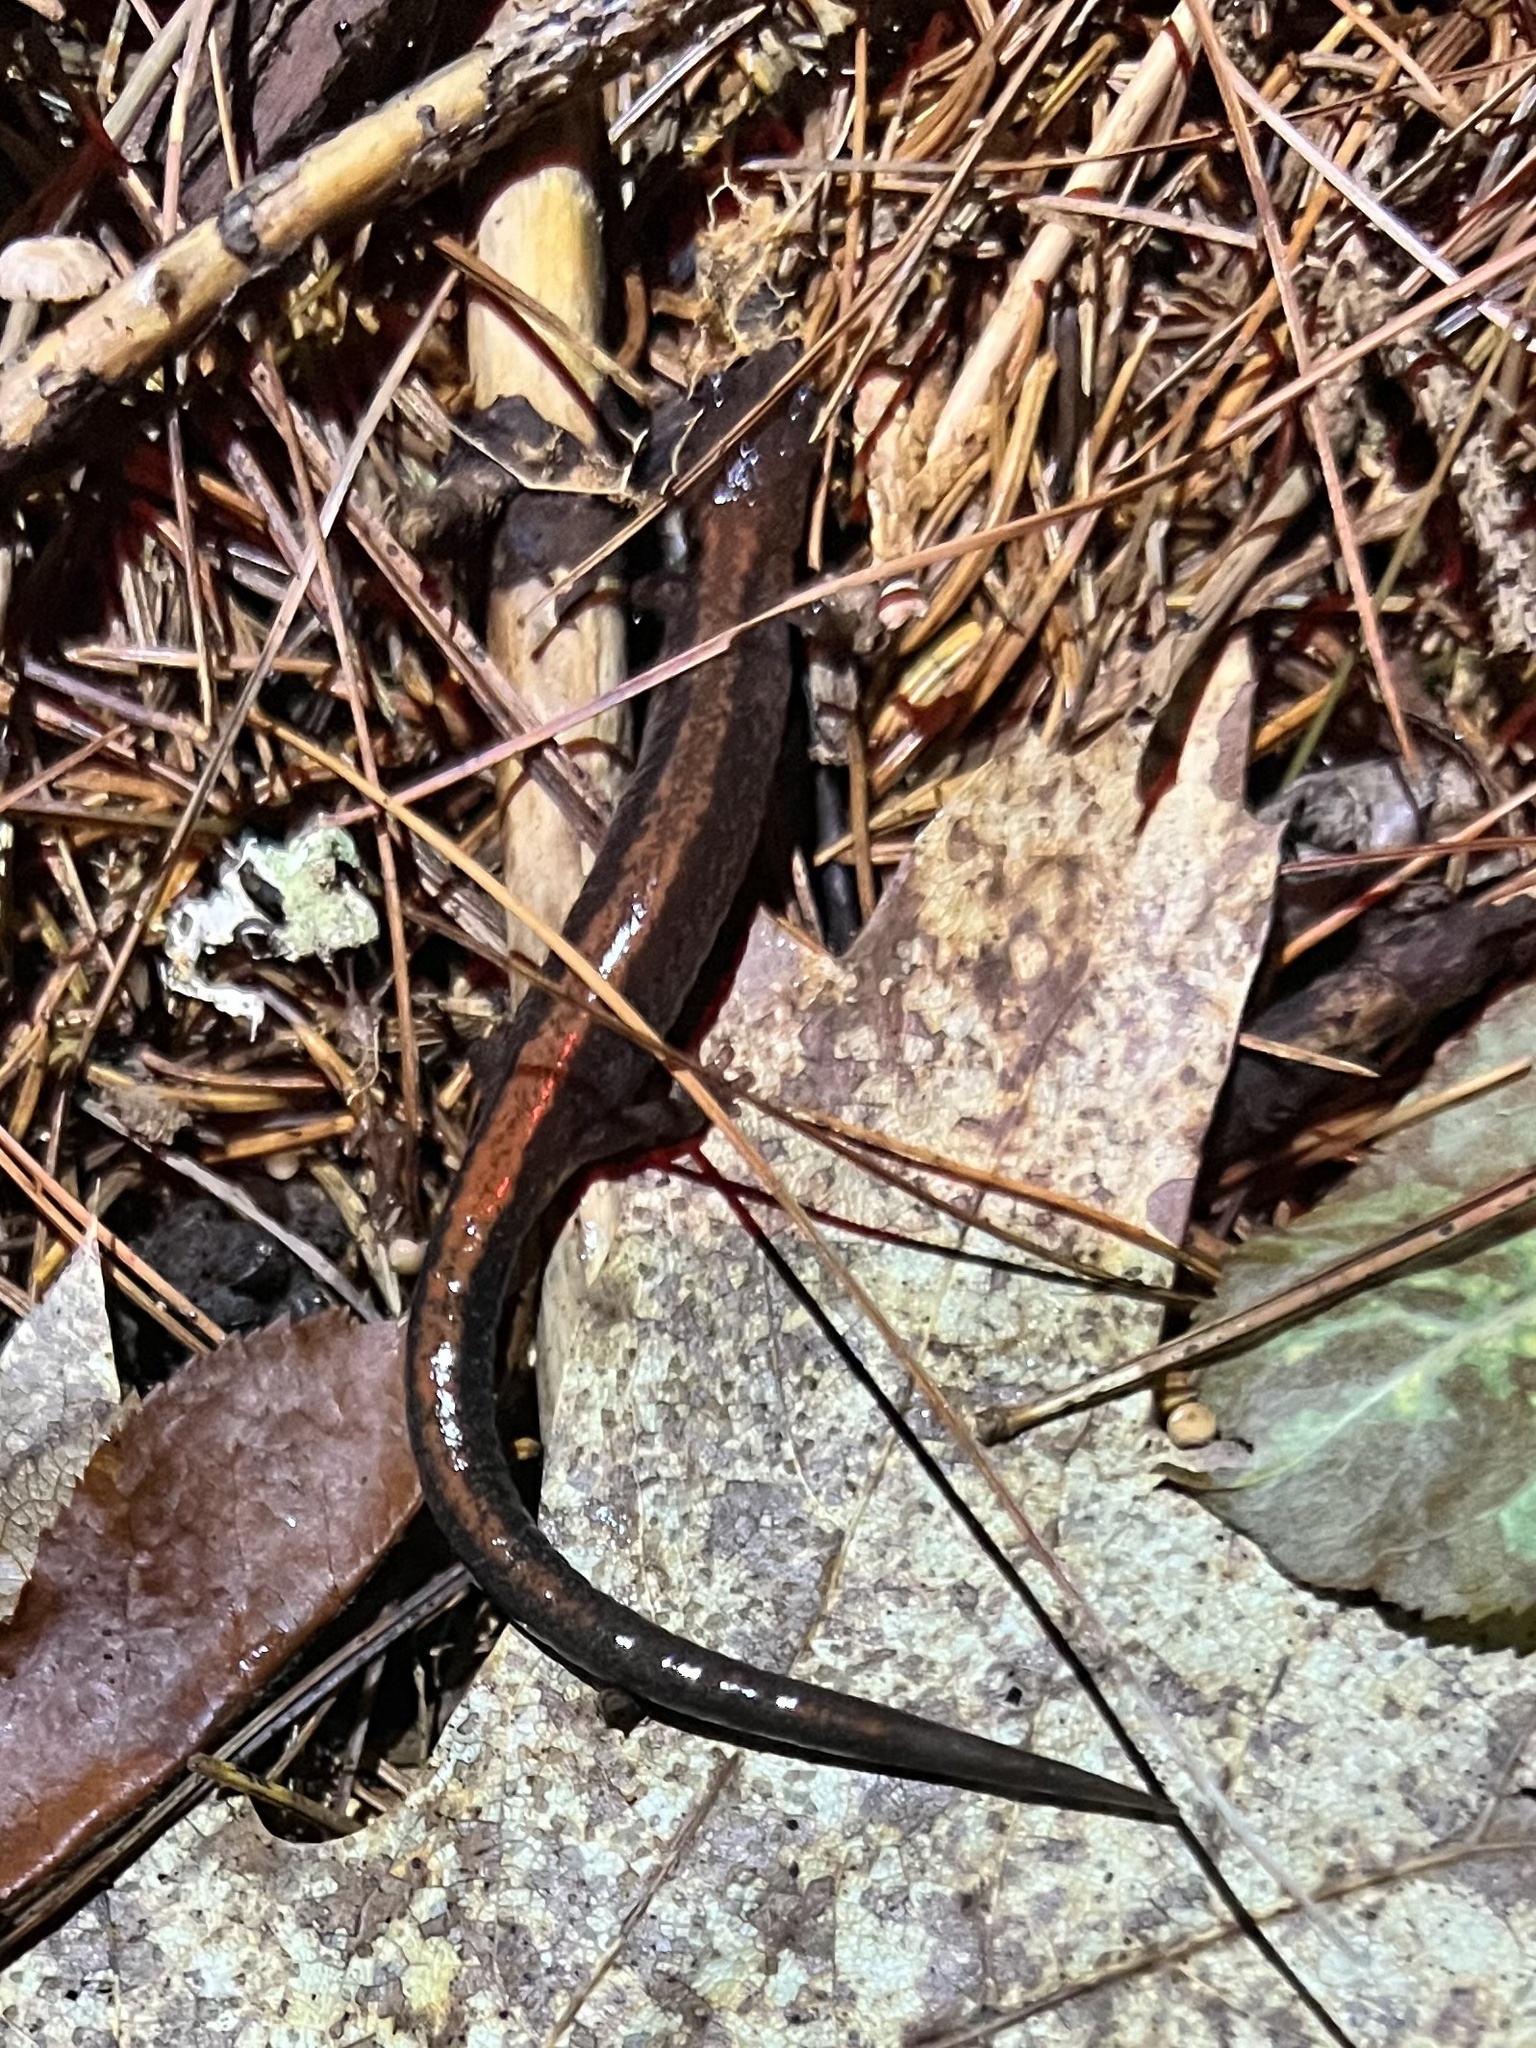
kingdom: Animalia
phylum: Chordata
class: Amphibia
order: Caudata
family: Plethodontidae
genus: Plethodon
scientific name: Plethodon cinereus
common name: Redback salamander
